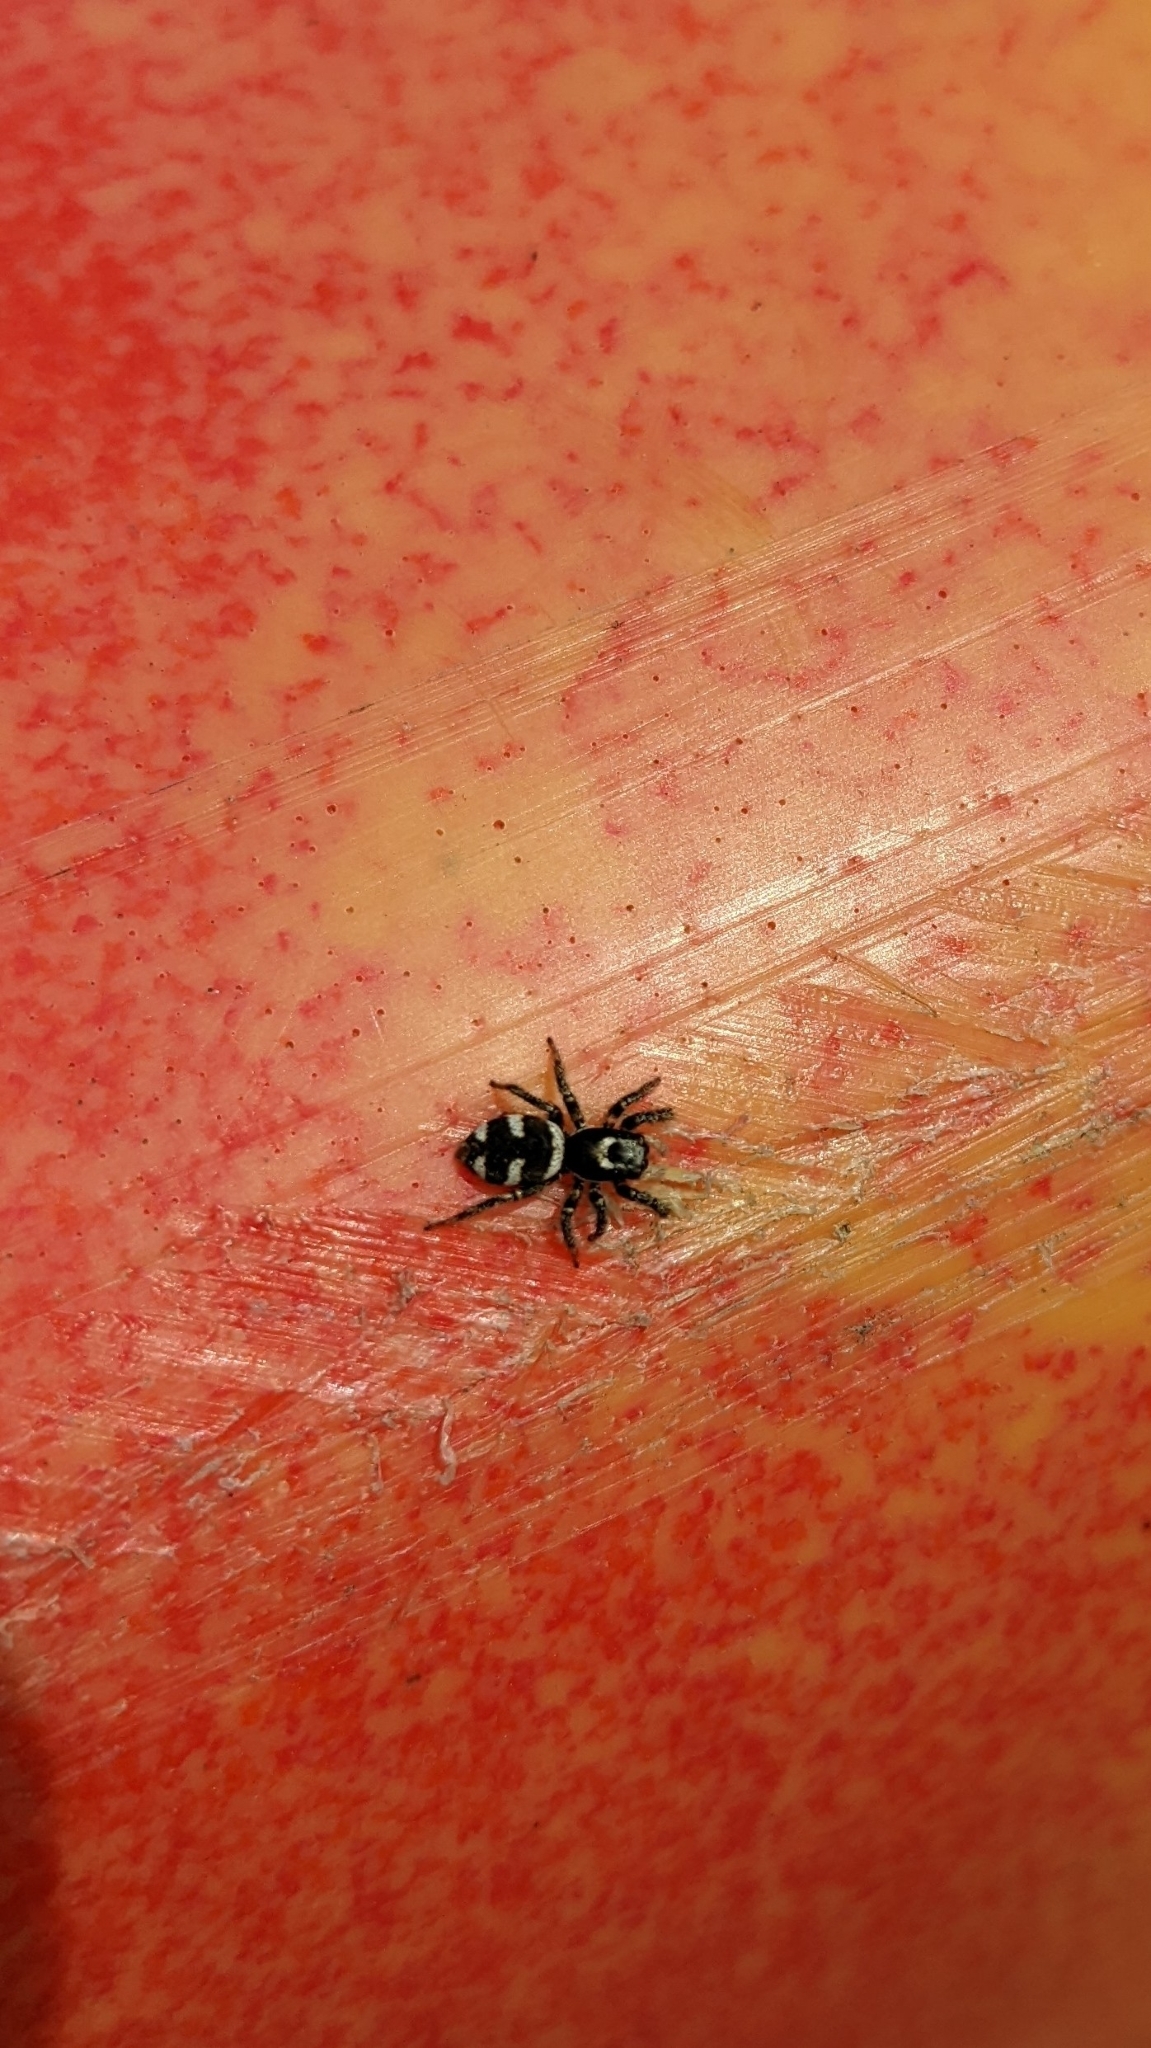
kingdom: Animalia
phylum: Arthropoda
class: Arachnida
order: Araneae
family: Salticidae
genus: Salticus
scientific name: Salticus scenicus
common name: Zebra jumper
